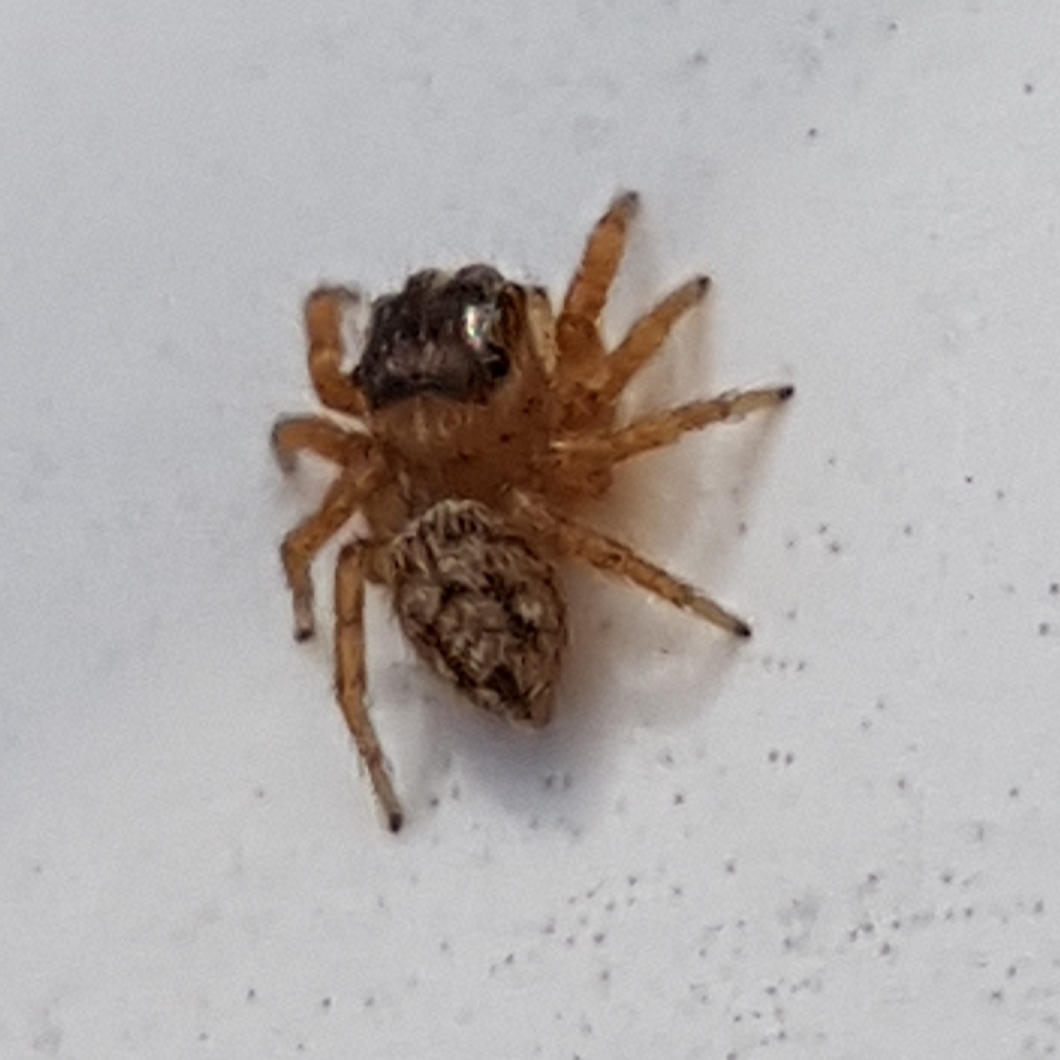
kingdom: Animalia
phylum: Arthropoda
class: Arachnida
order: Araneae
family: Salticidae
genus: Evarcha
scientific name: Evarcha jucunda
